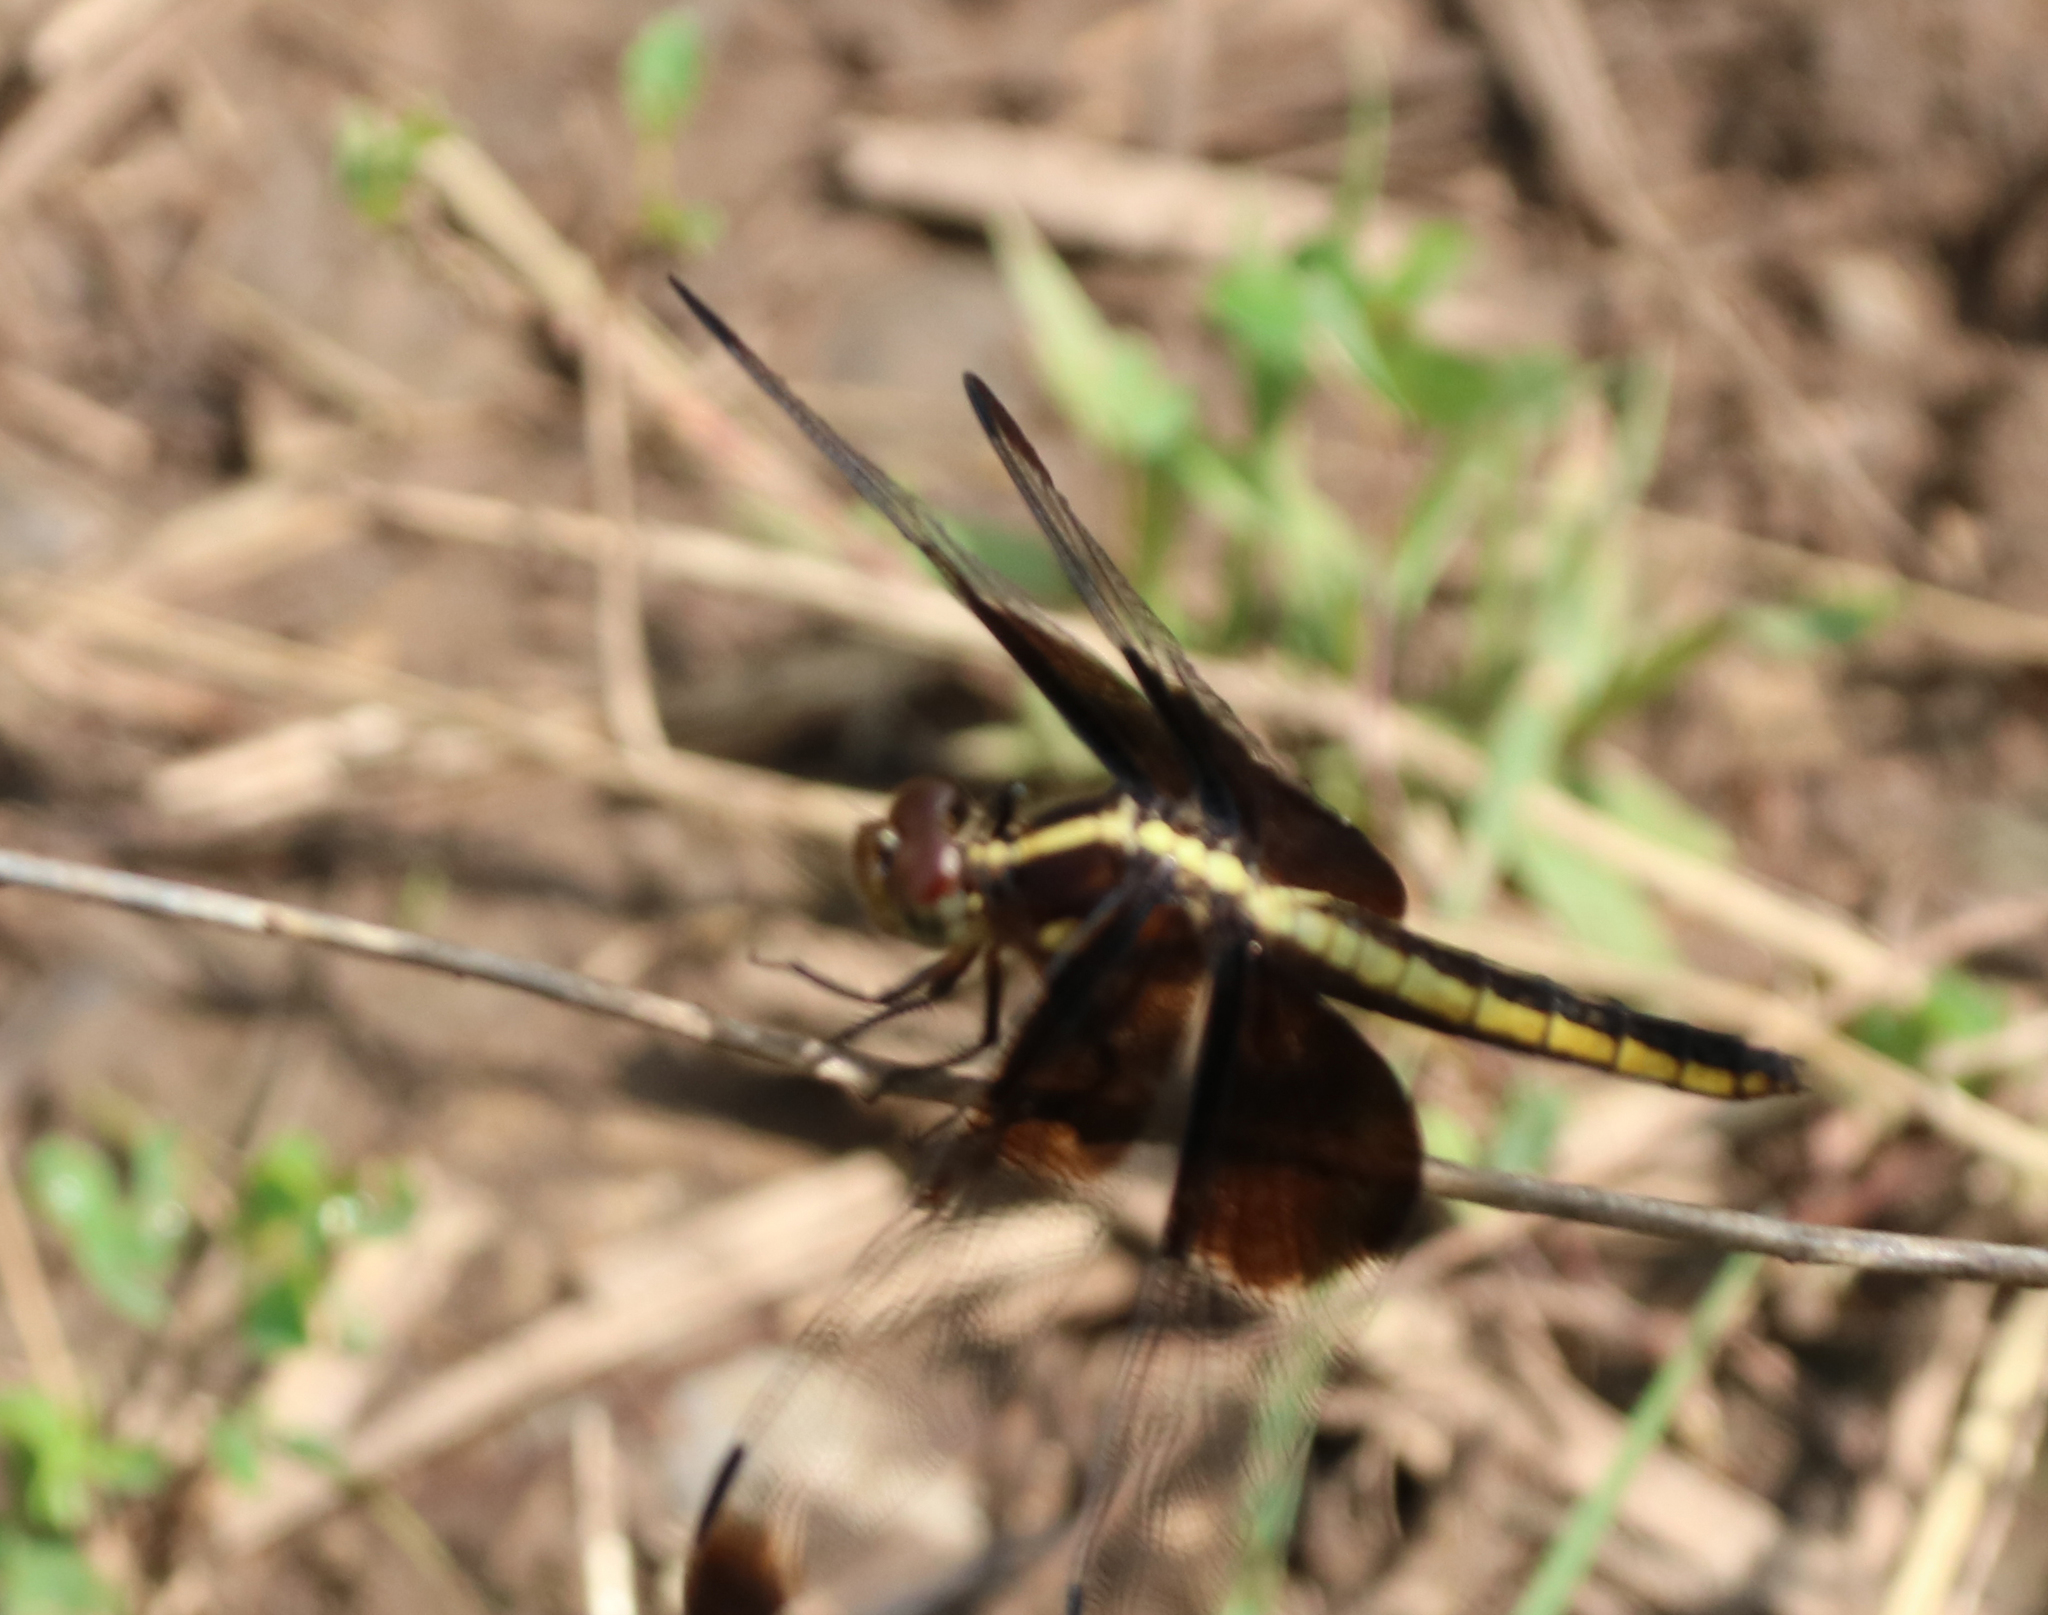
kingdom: Animalia
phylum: Arthropoda
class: Insecta
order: Odonata
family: Libellulidae
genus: Libellula
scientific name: Libellula luctuosa
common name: Widow skimmer
